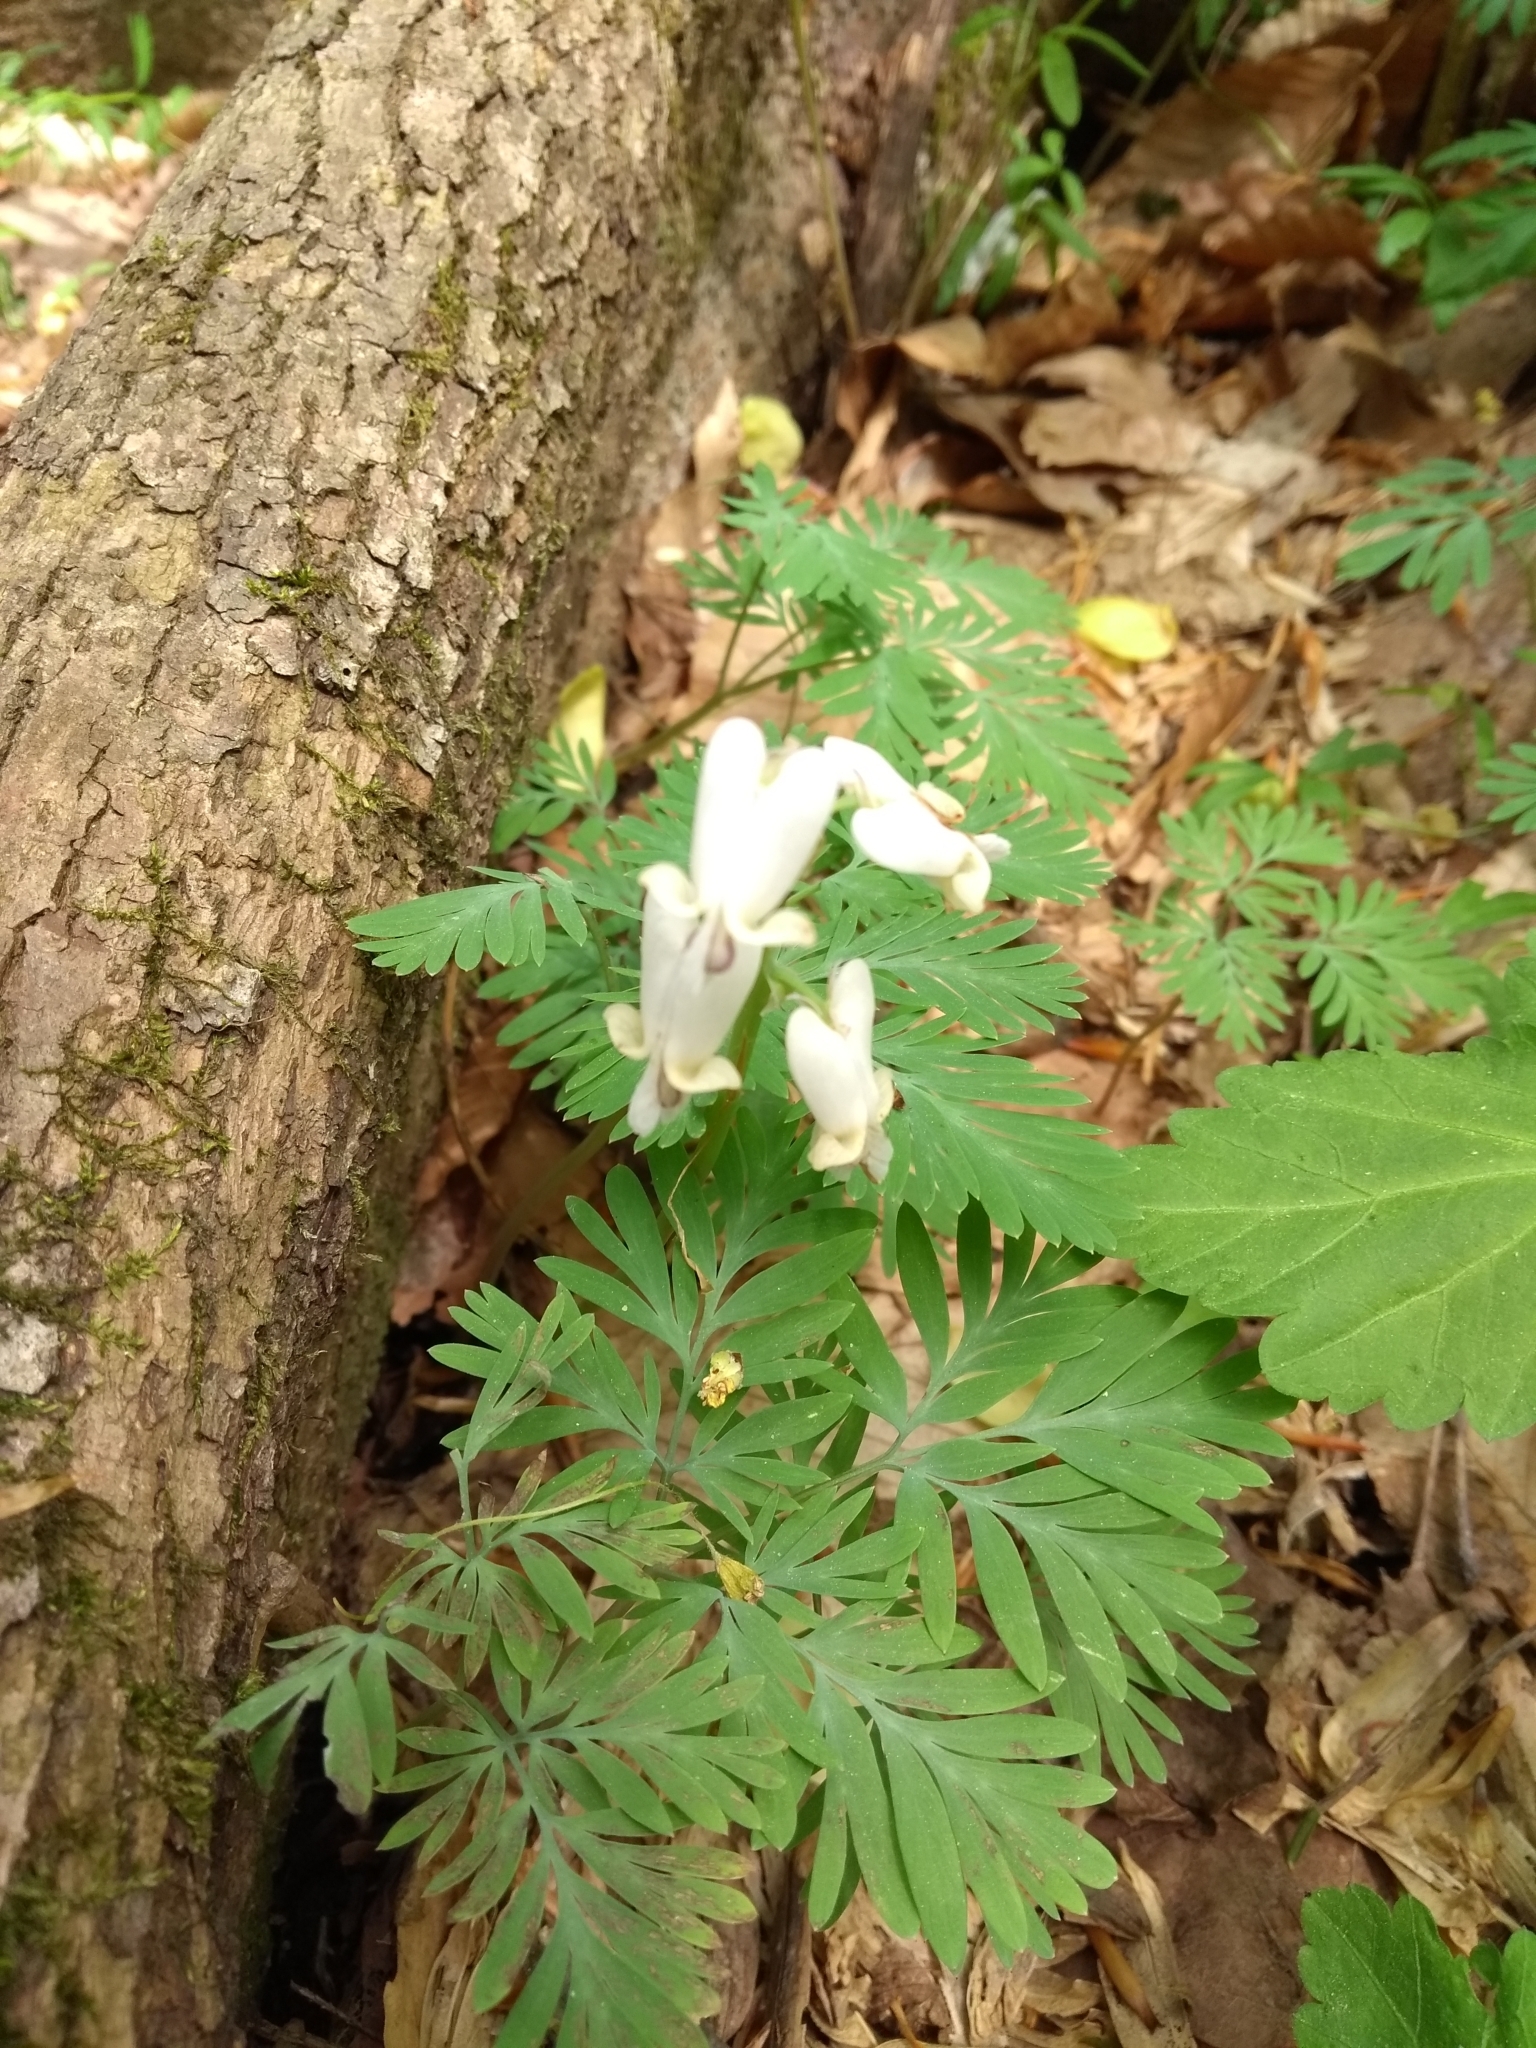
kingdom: Plantae
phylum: Tracheophyta
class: Magnoliopsida
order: Ranunculales
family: Papaveraceae
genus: Dicentra
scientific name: Dicentra canadensis
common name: Squirrel-corn
